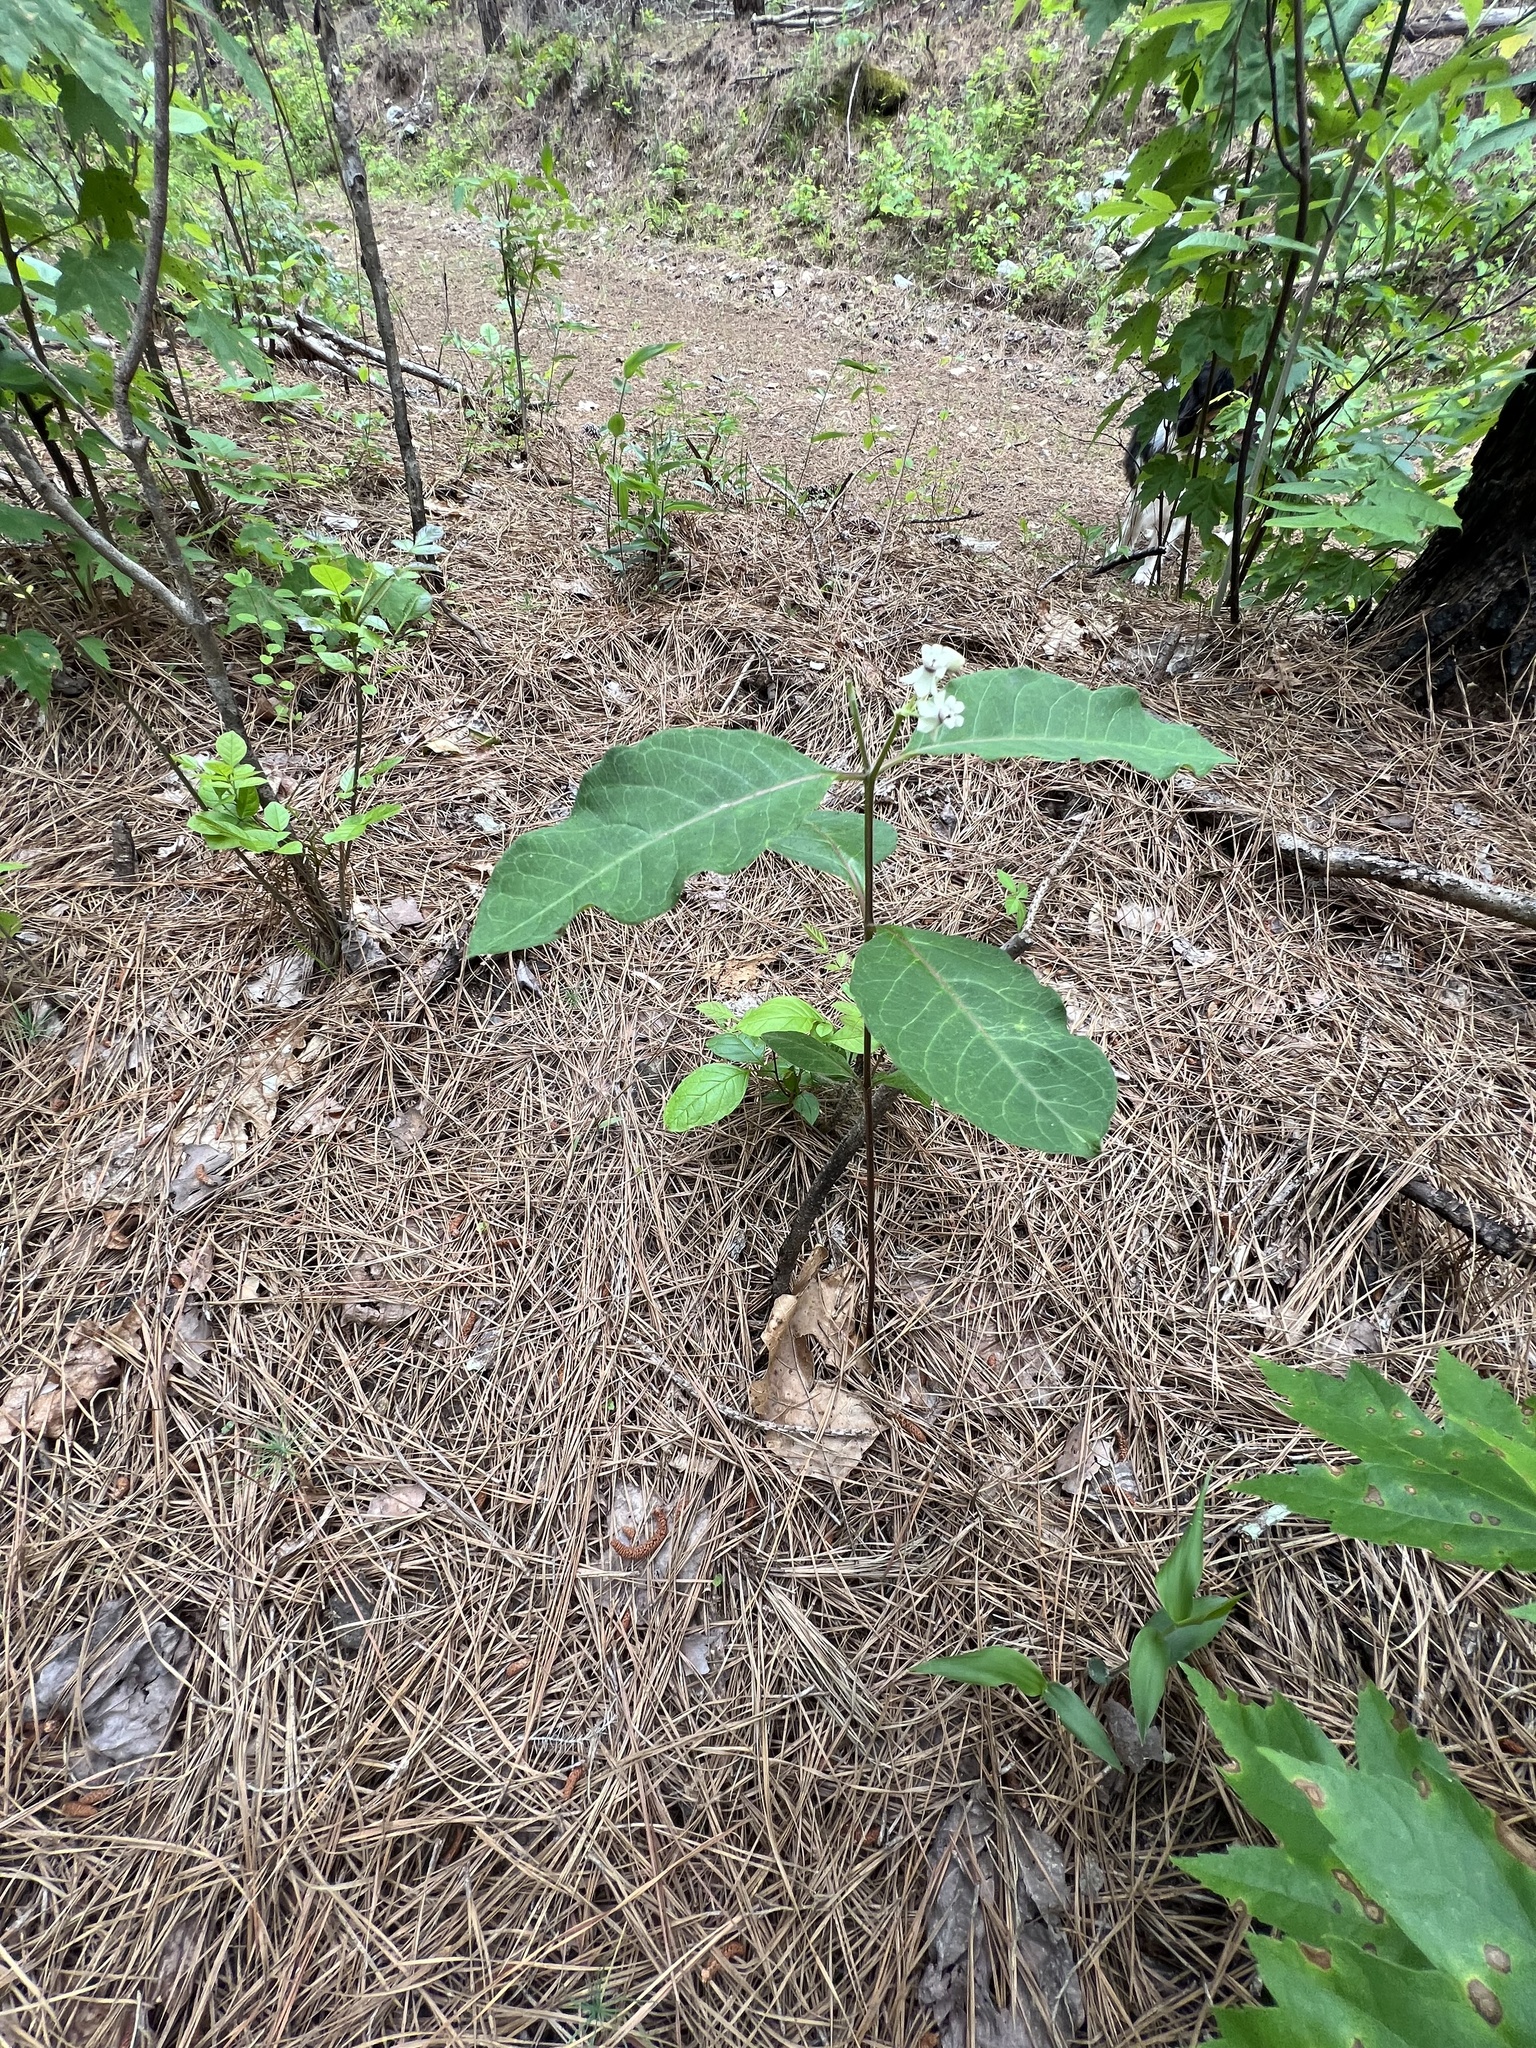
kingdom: Plantae
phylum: Tracheophyta
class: Magnoliopsida
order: Gentianales
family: Apocynaceae
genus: Asclepias
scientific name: Asclepias variegata
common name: Variegated milkweed
